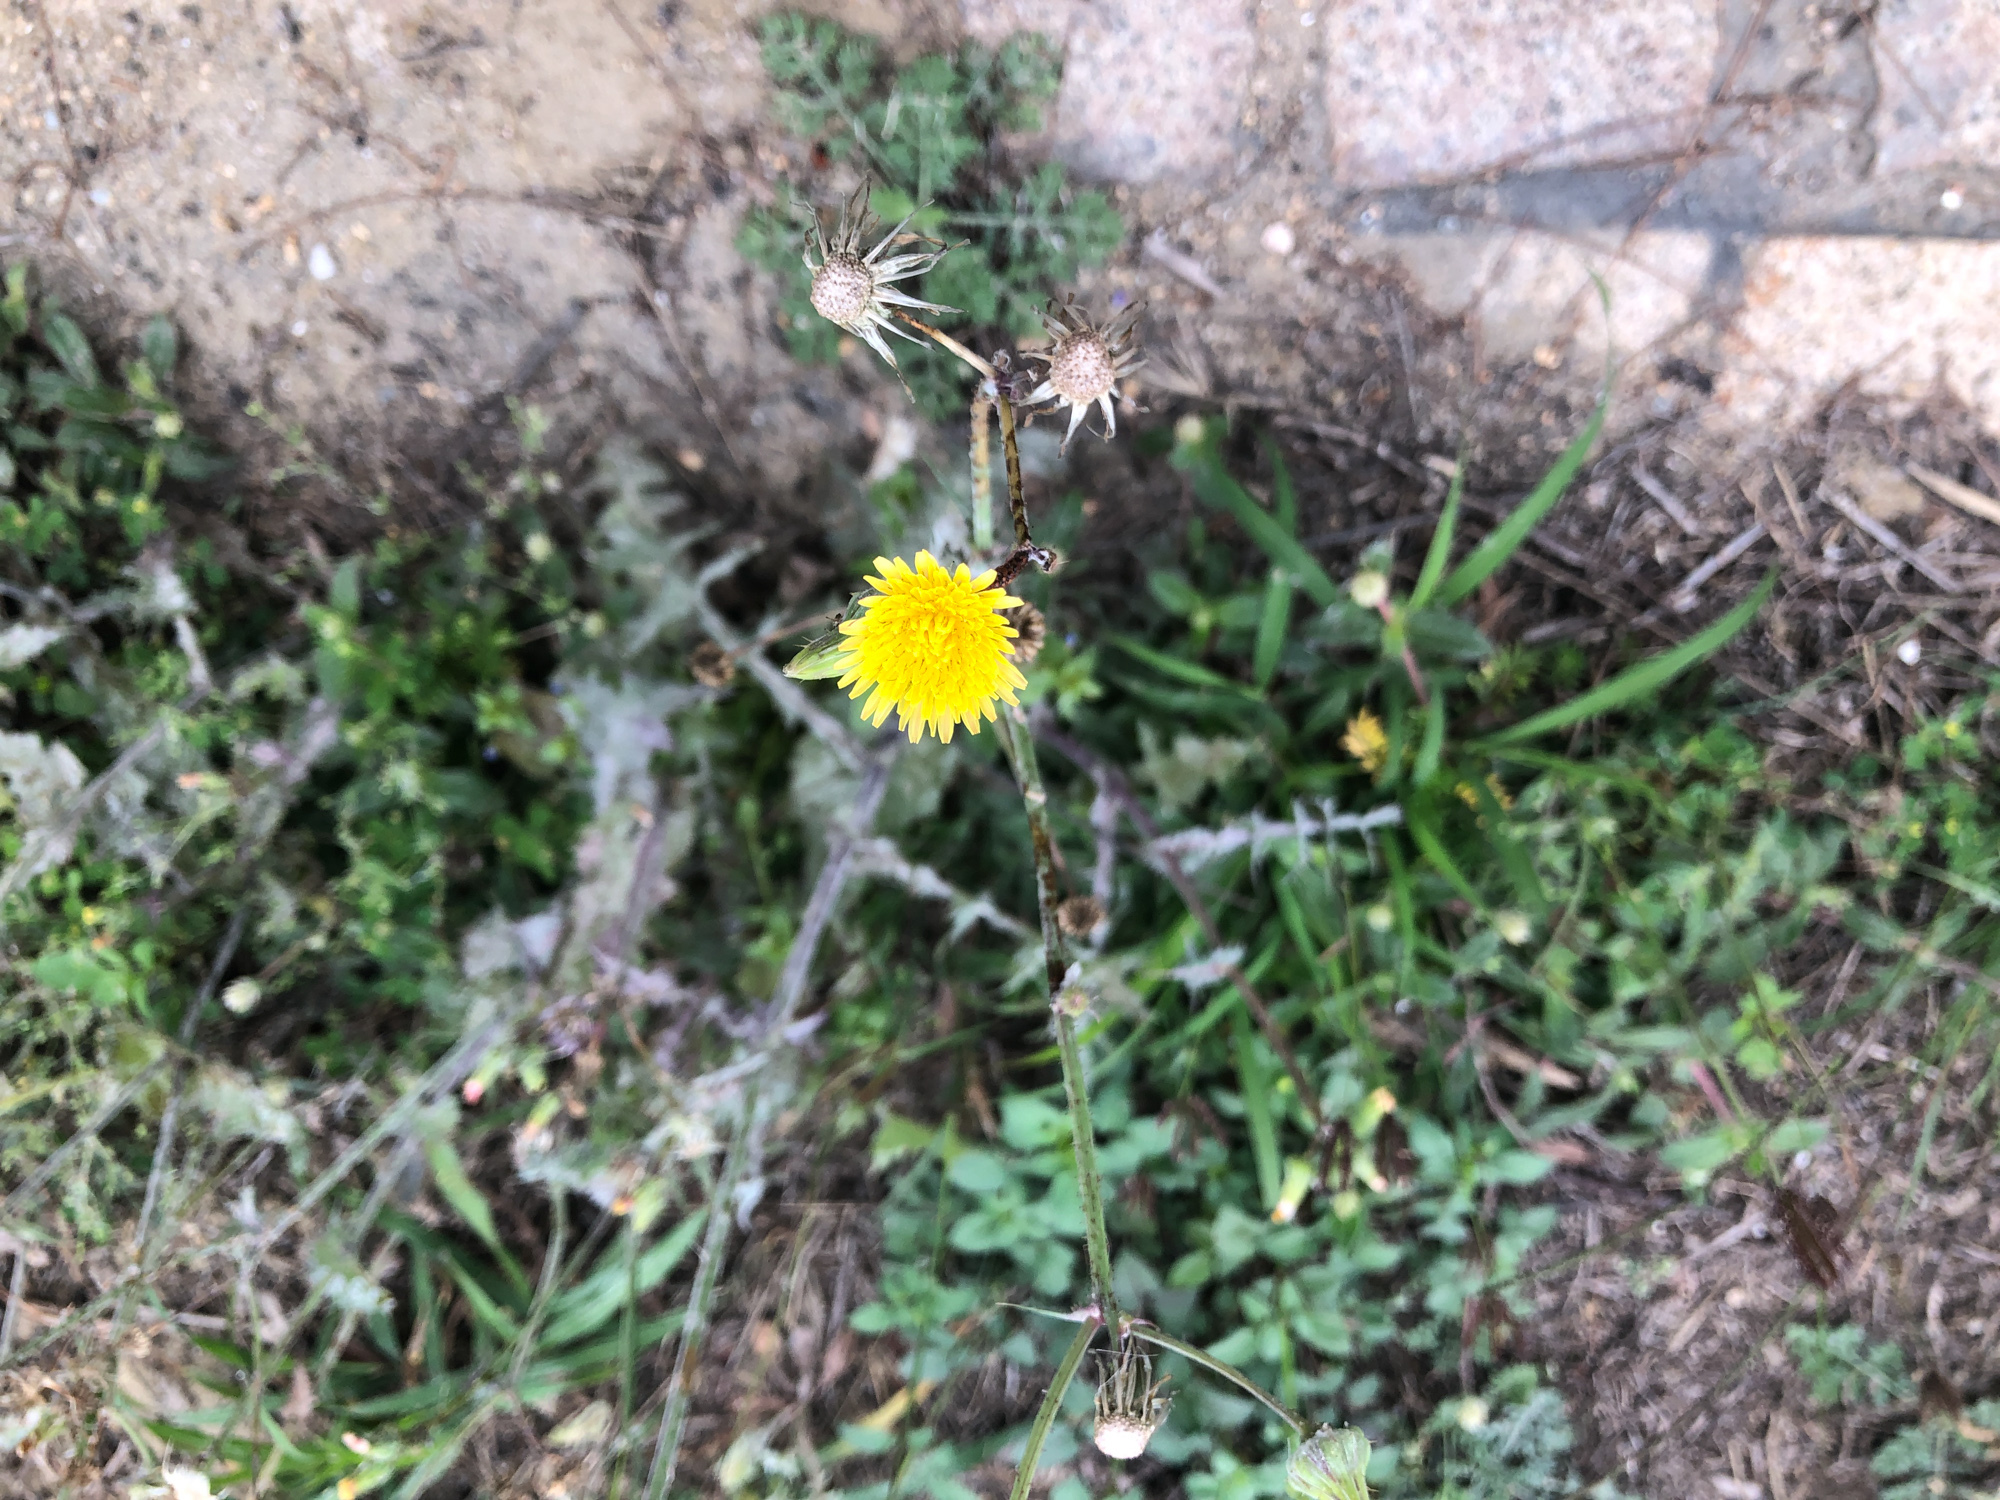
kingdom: Plantae
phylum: Tracheophyta
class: Magnoliopsida
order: Asterales
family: Asteraceae
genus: Sonchus
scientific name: Sonchus oleraceus
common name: Common sowthistle
